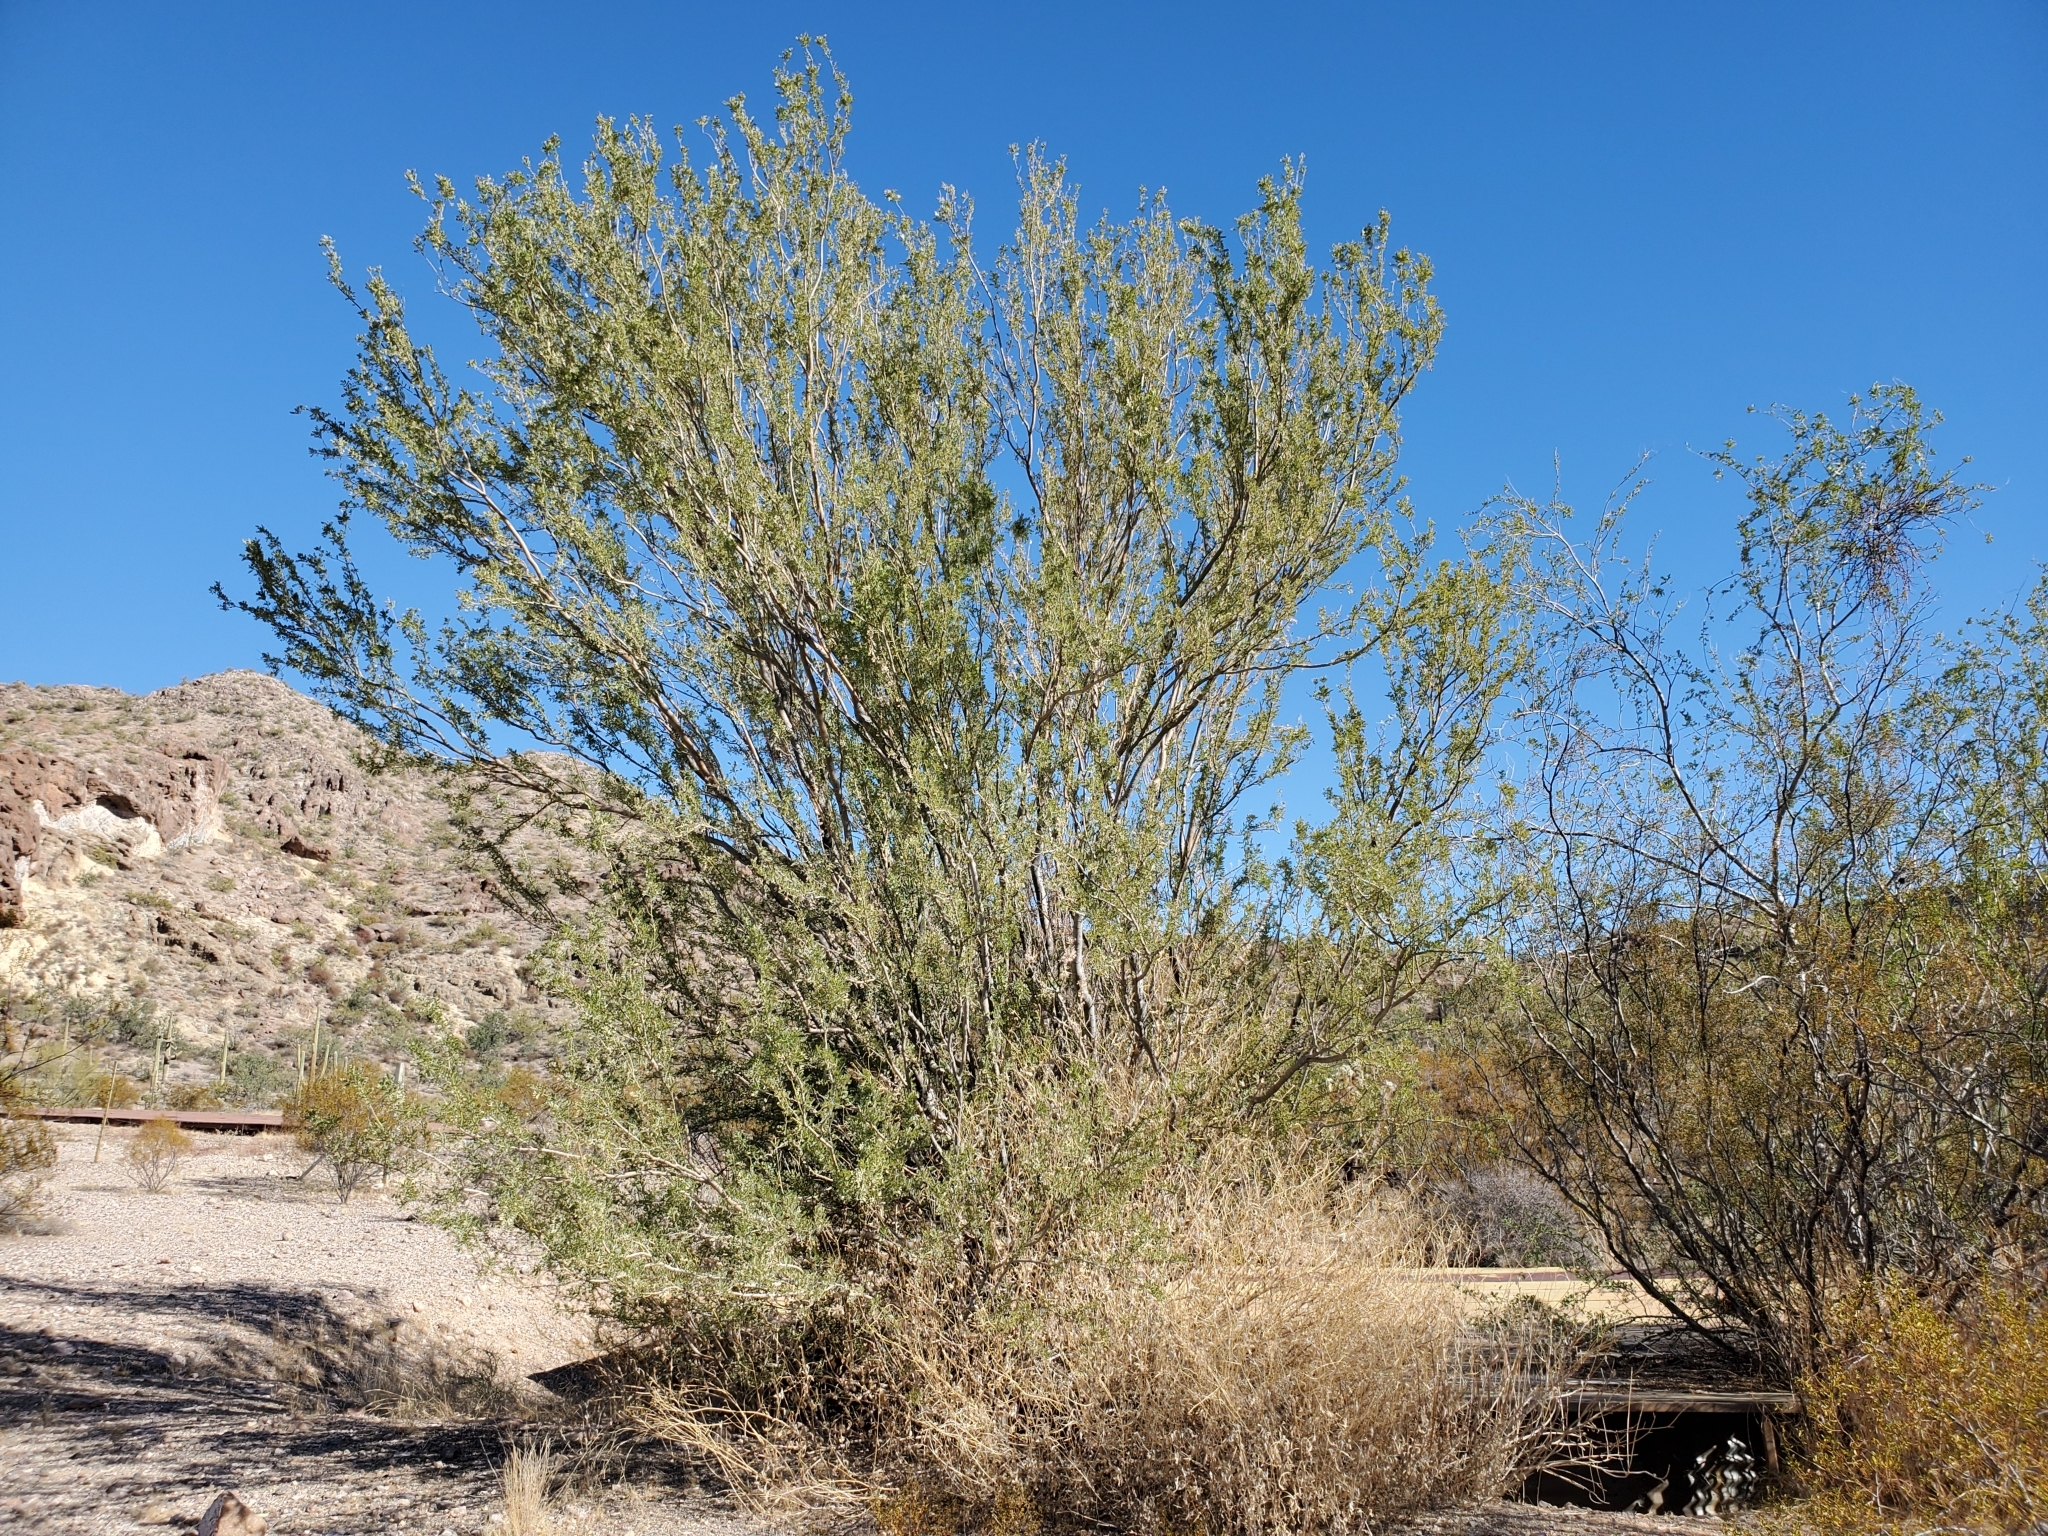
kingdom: Plantae
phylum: Tracheophyta
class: Magnoliopsida
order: Fabales
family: Fabaceae
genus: Olneya
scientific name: Olneya tesota
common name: Desert ironwood
